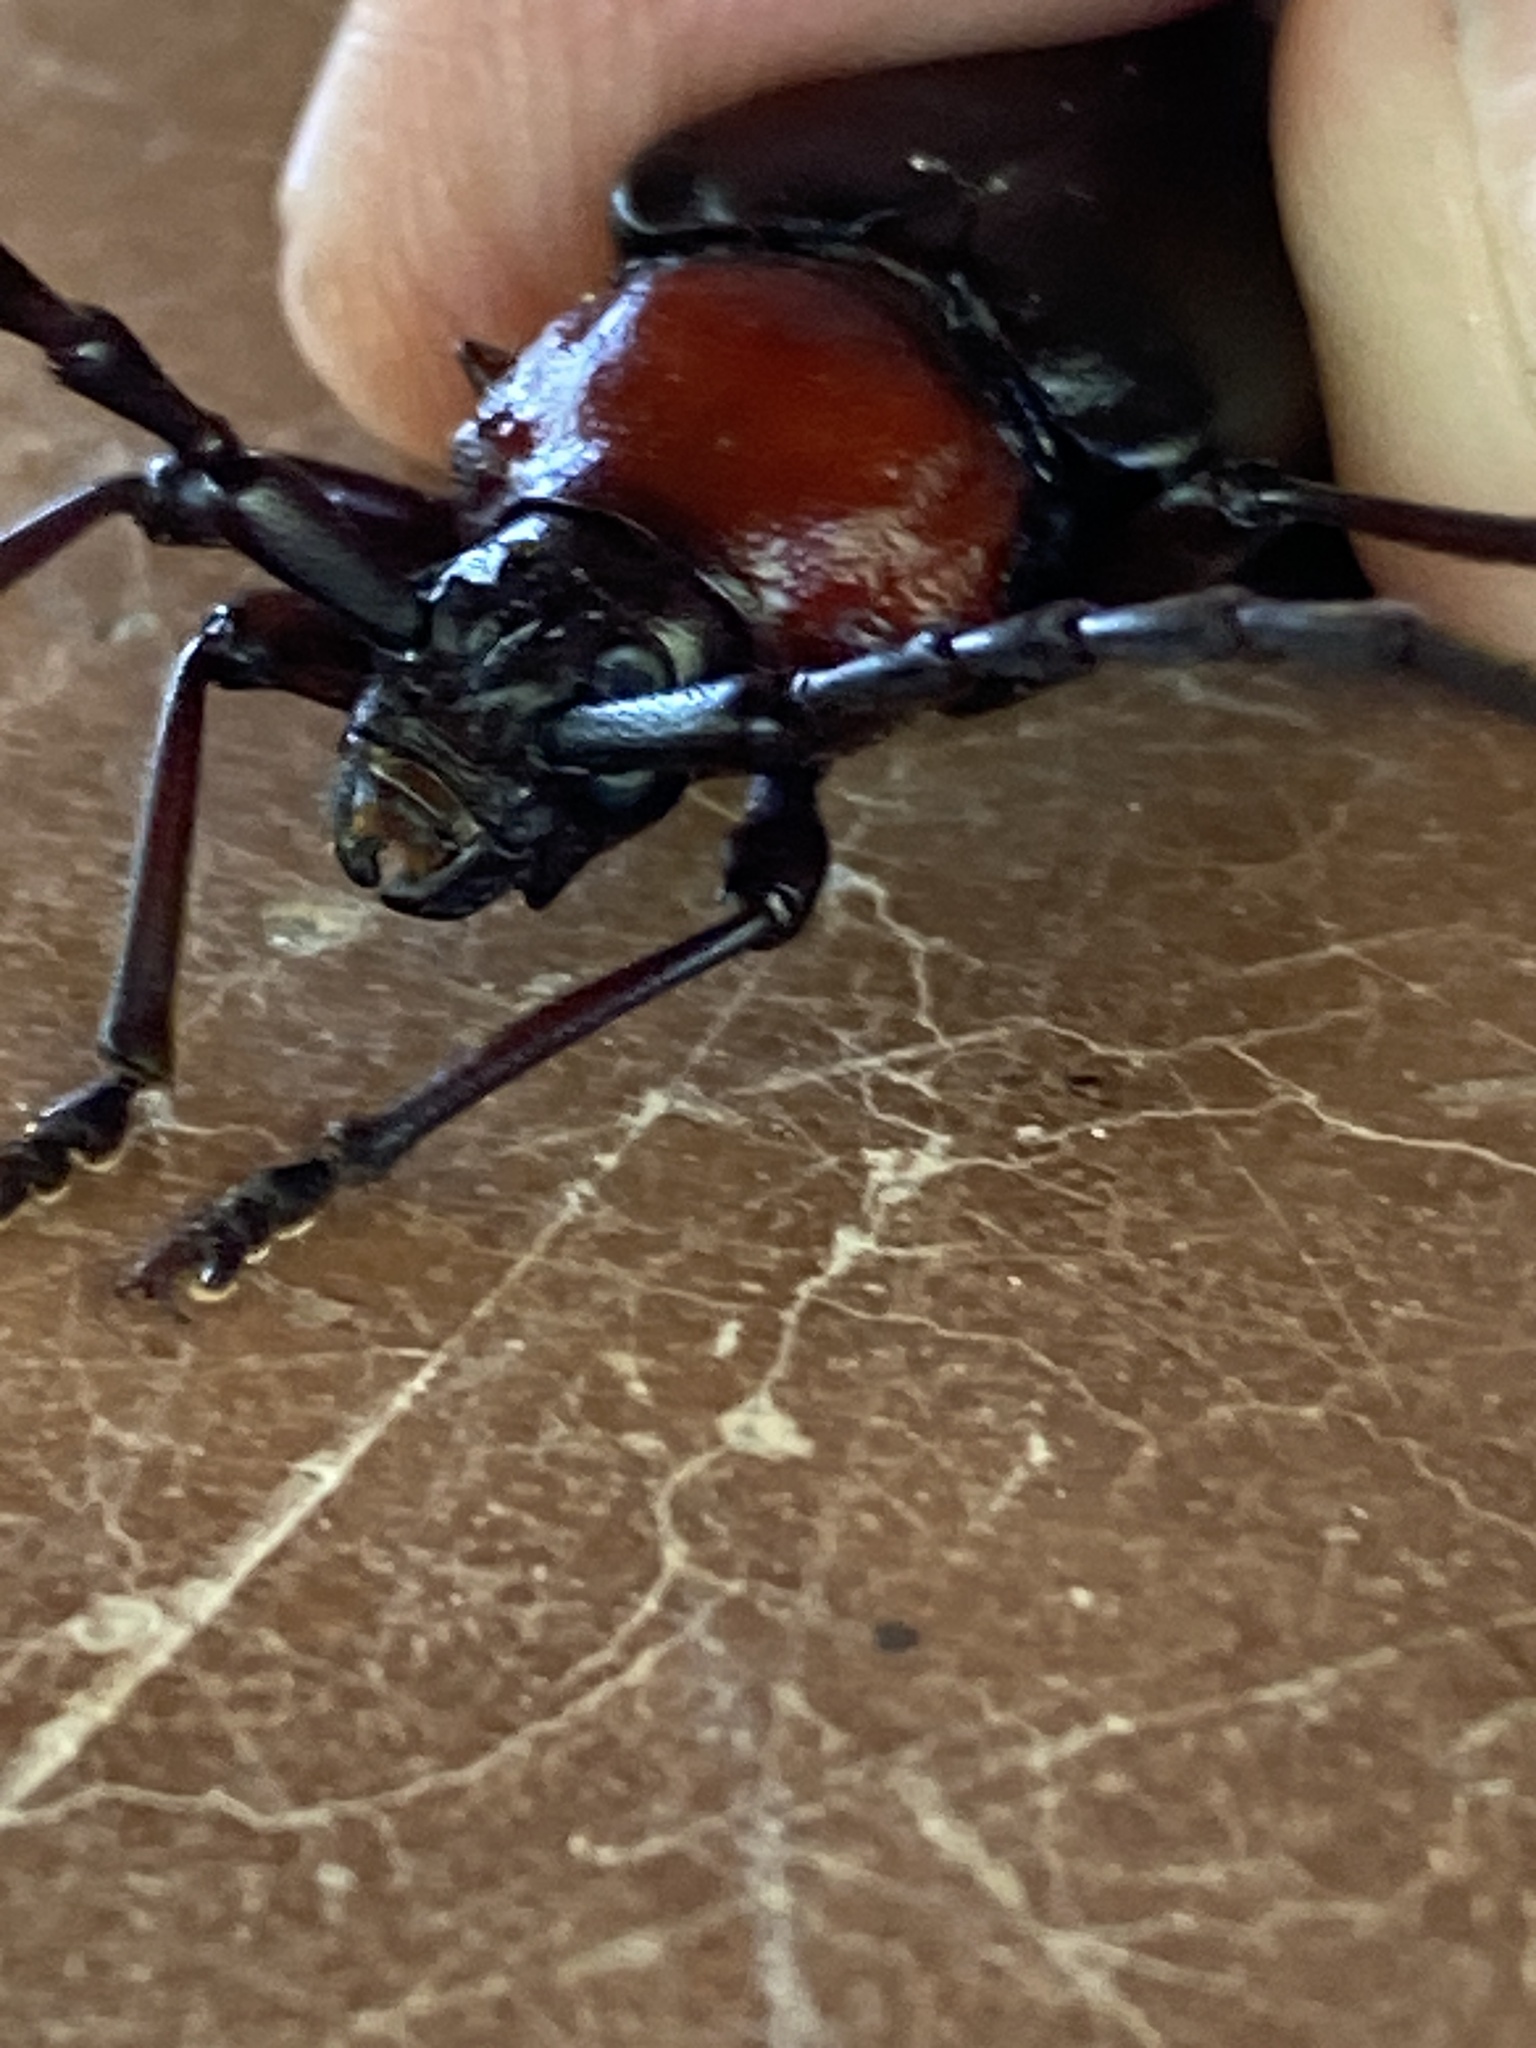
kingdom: Animalia
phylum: Arthropoda
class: Insecta
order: Coleoptera
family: Cerambycidae
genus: Stenaspis
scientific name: Stenaspis solitaria
